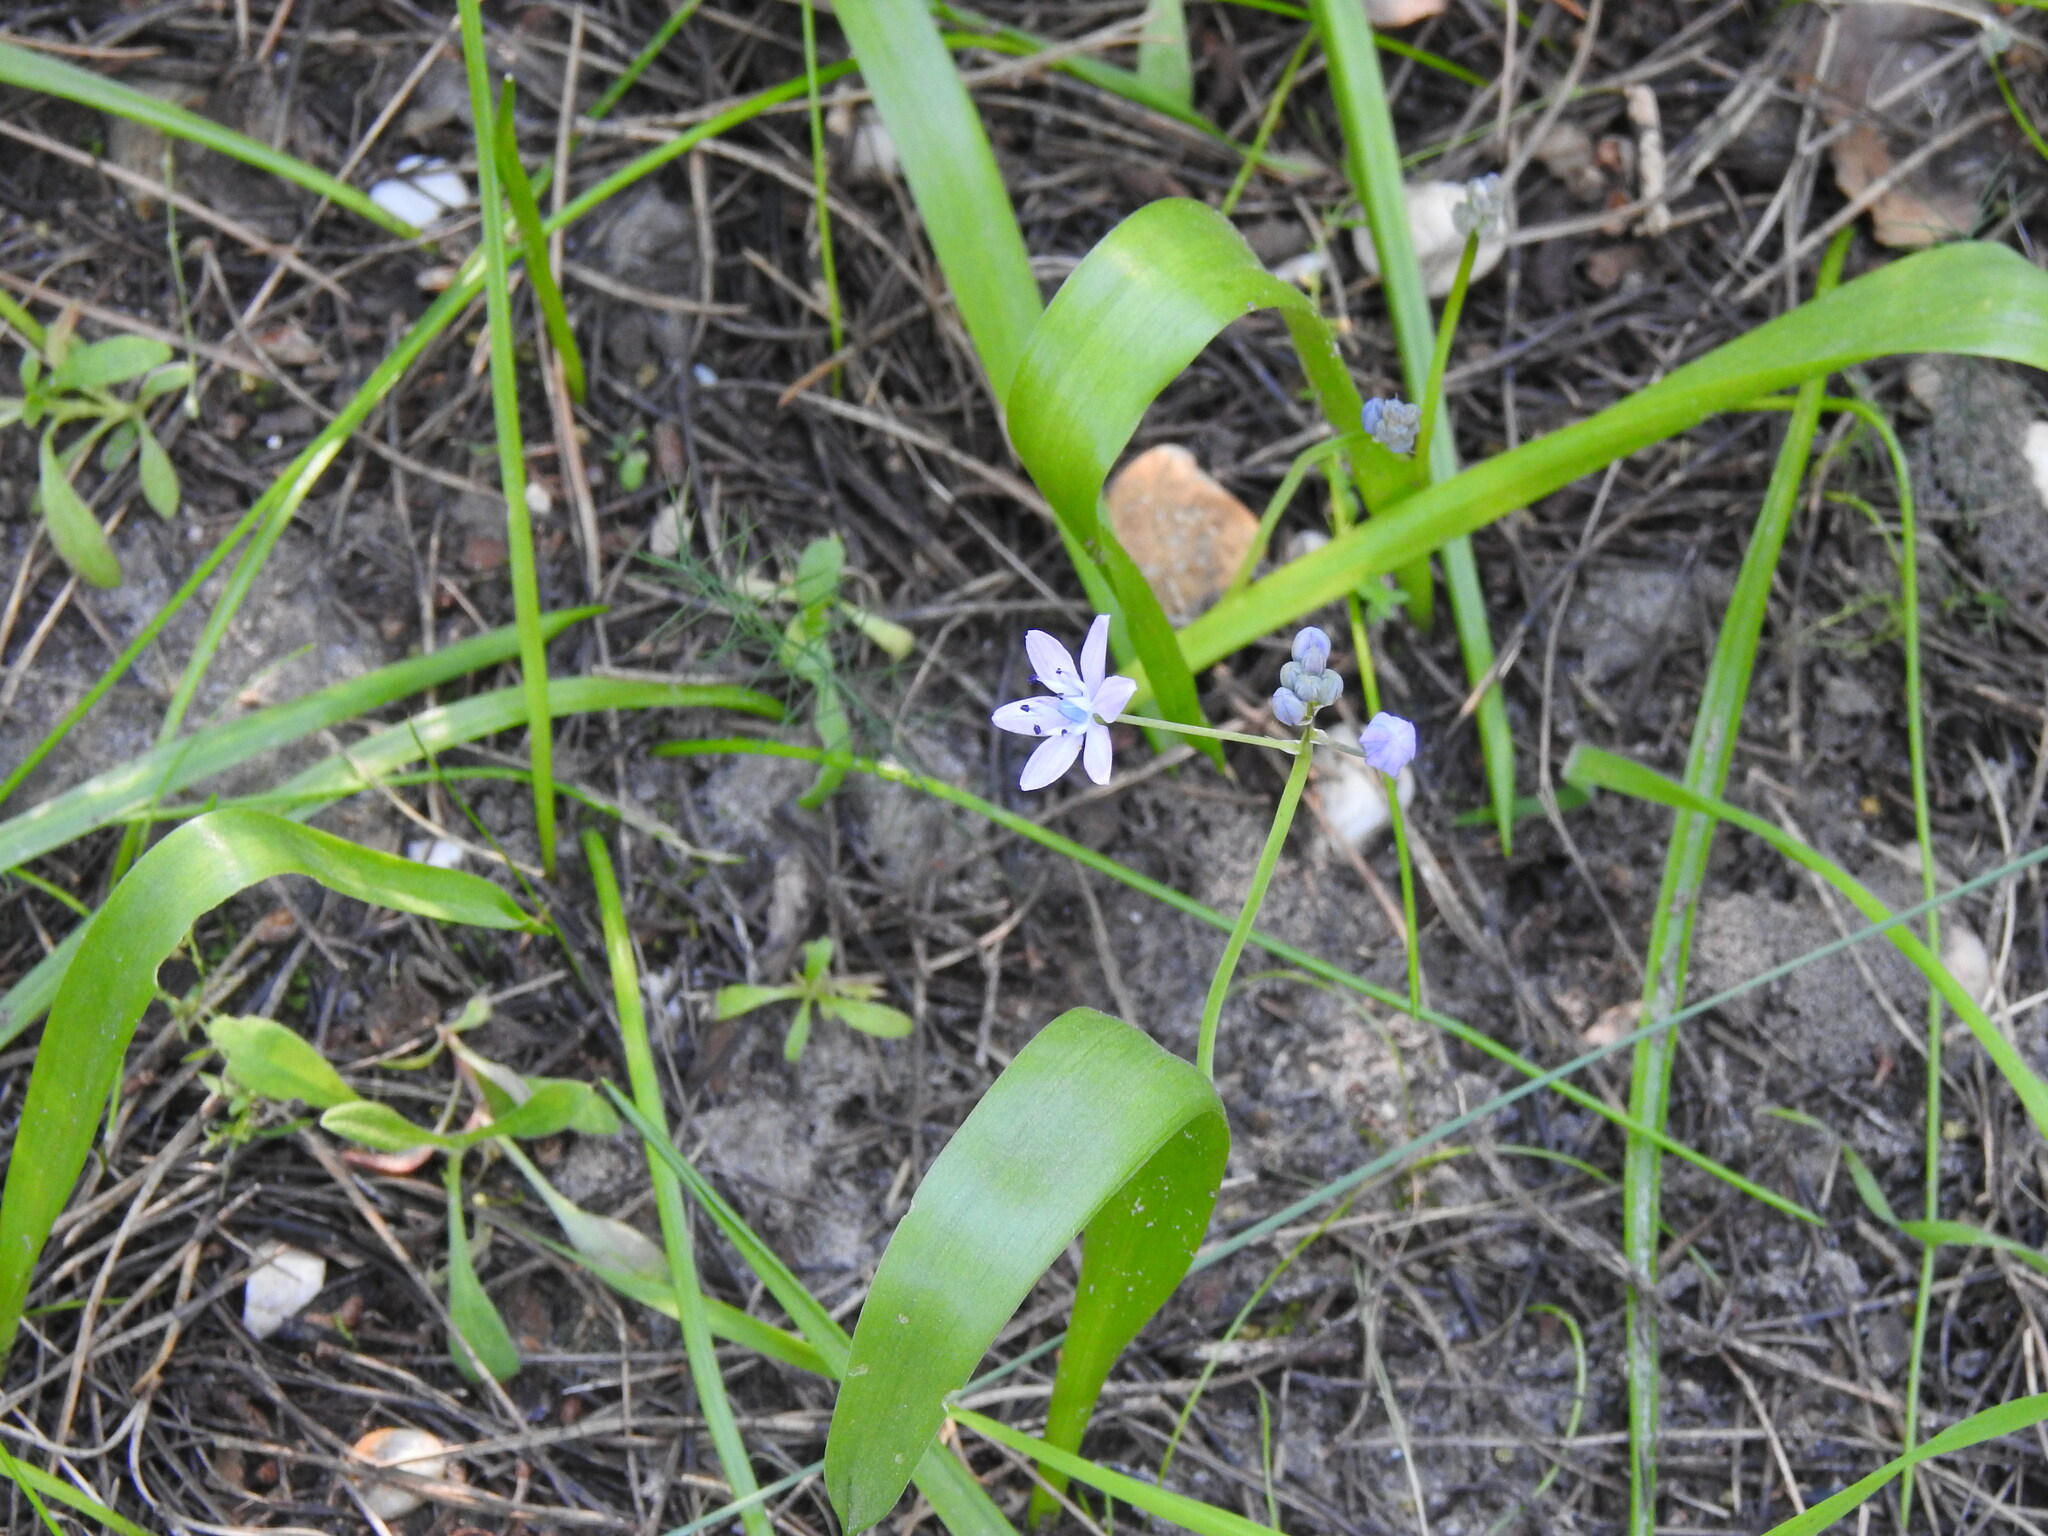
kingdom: Plantae
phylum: Tracheophyta
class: Liliopsida
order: Asparagales
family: Asparagaceae
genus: Scilla
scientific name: Scilla monophyllos
